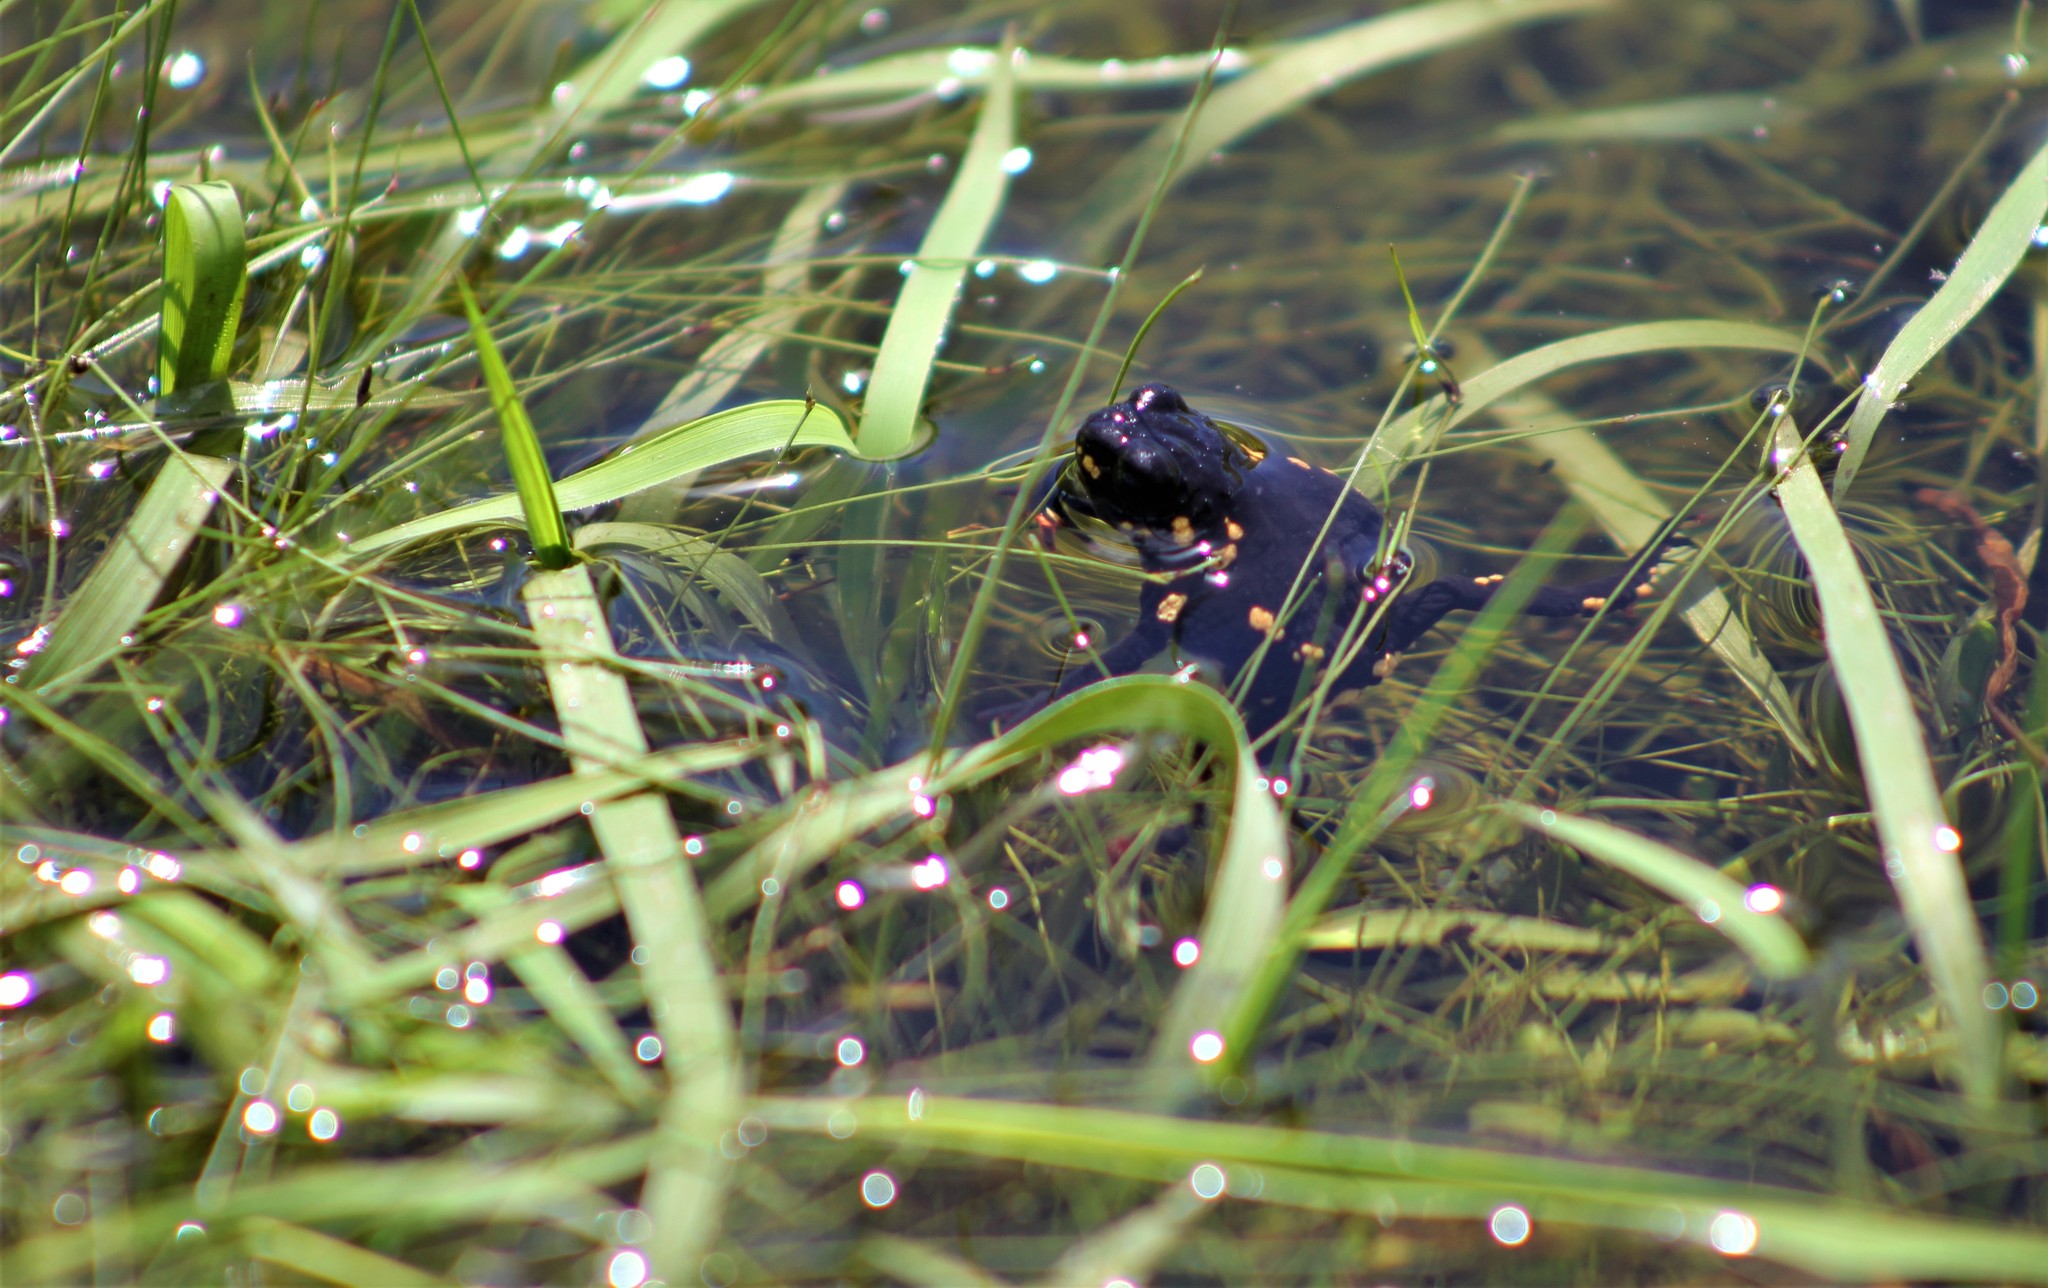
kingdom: Animalia
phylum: Chordata
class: Amphibia
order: Anura
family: Bufonidae
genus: Melanophryniscus
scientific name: Melanophryniscus montevidensis
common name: Montevideo redbelly toad
